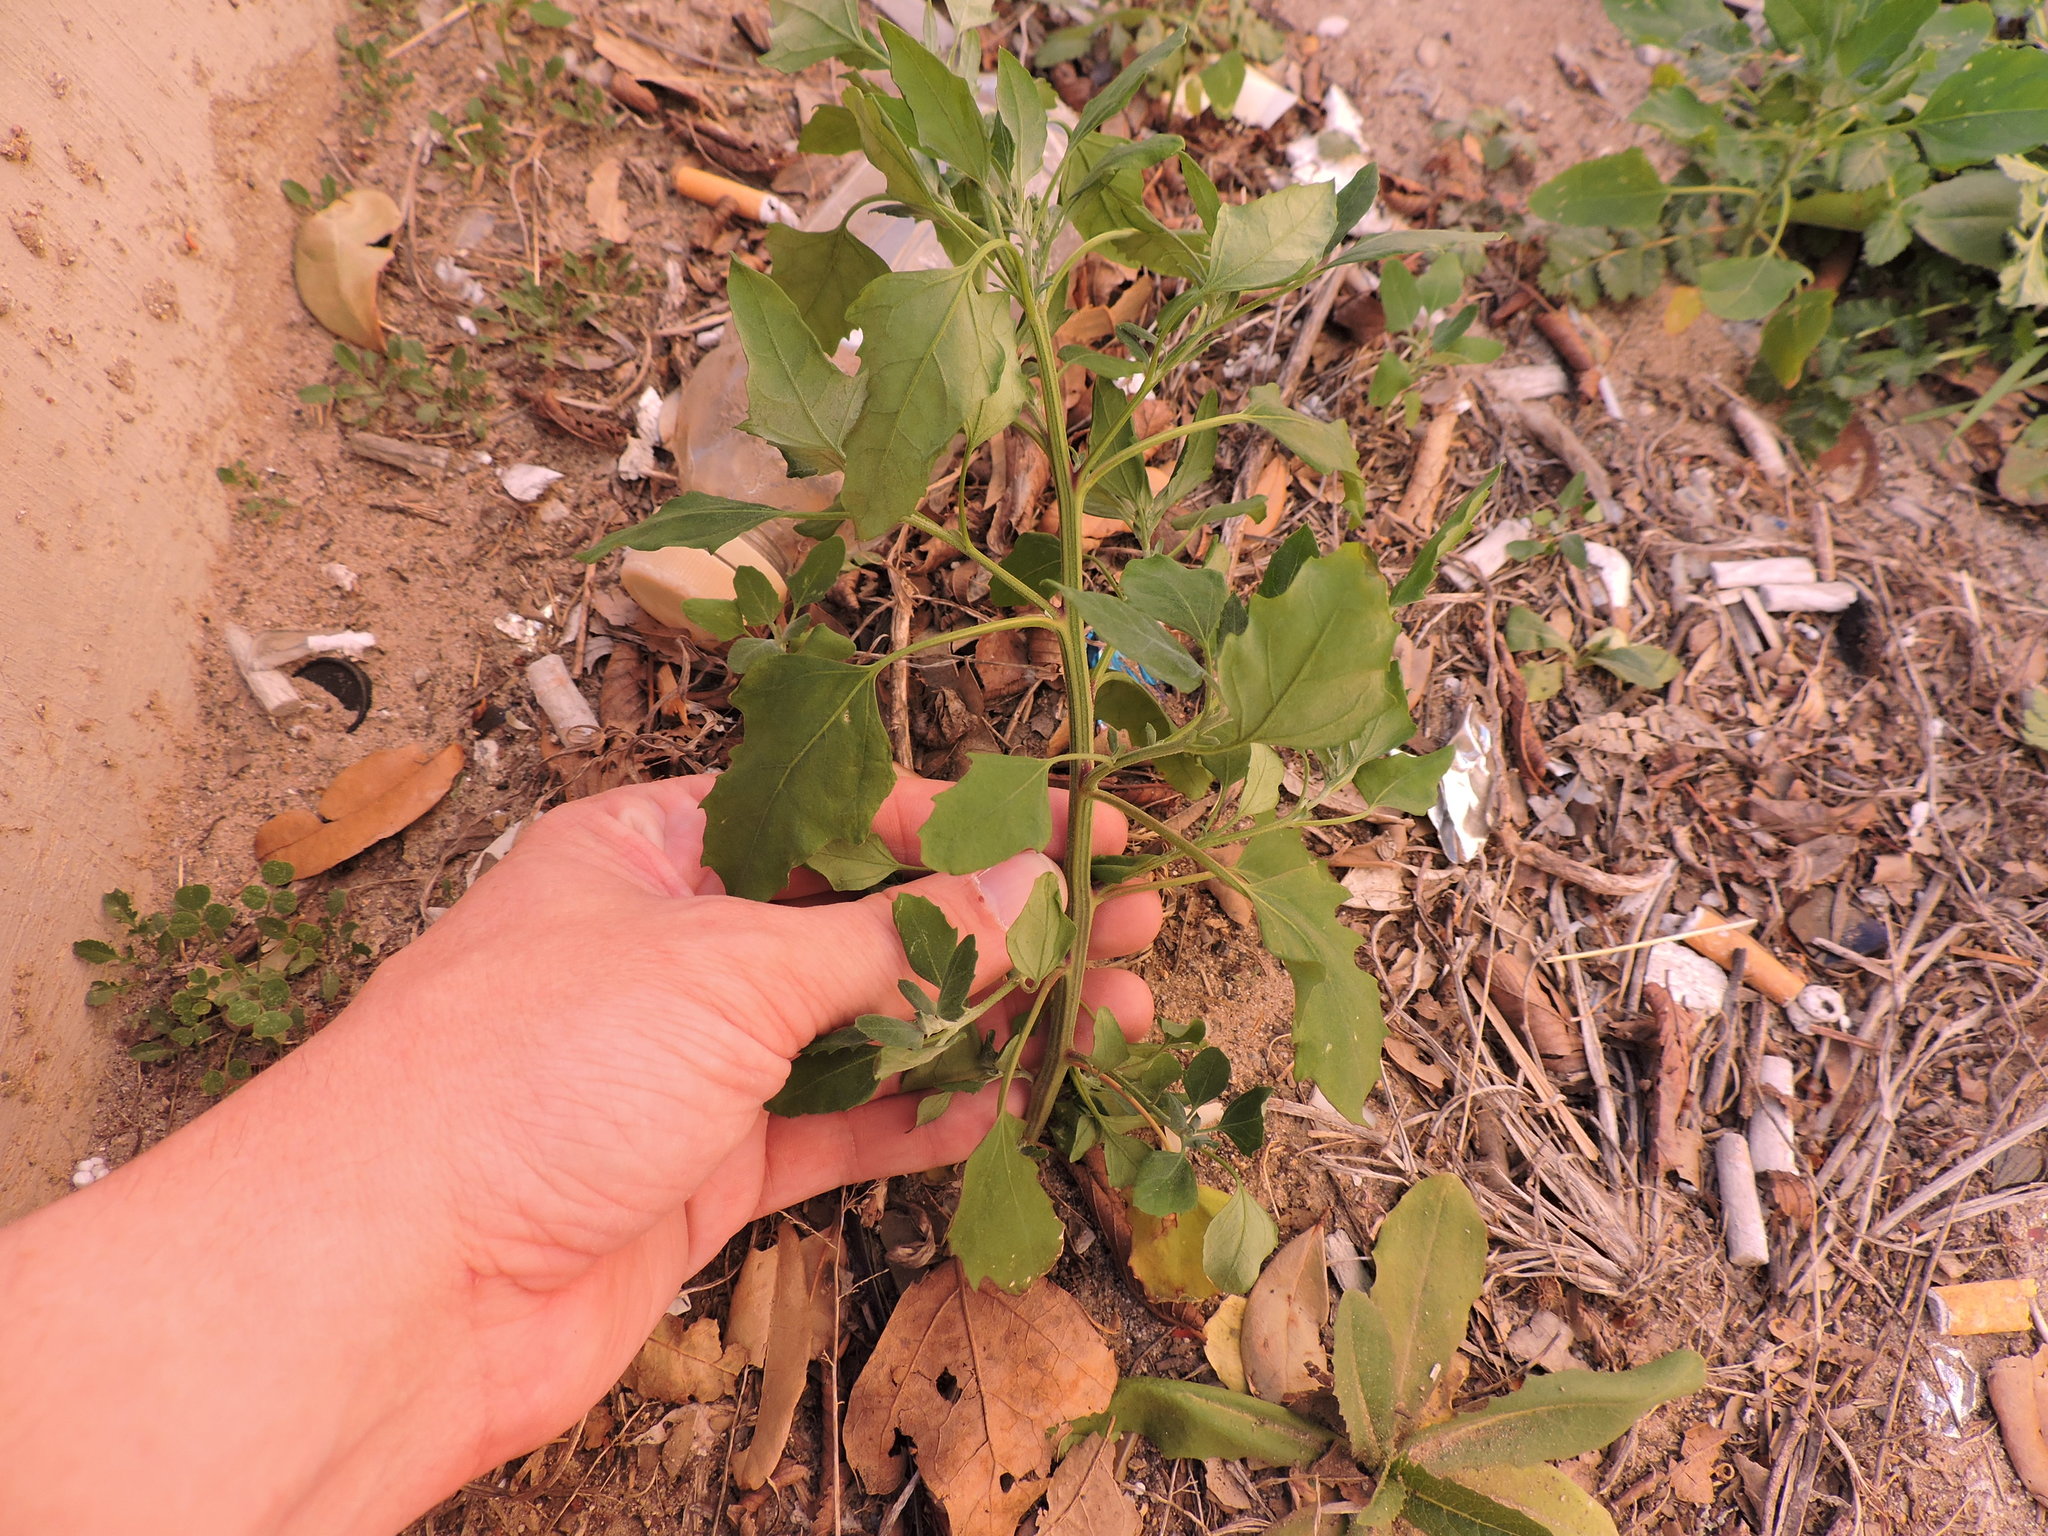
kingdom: Plantae
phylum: Tracheophyta
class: Magnoliopsida
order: Caryophyllales
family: Amaranthaceae
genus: Chenopodium
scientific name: Chenopodium album
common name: Fat-hen
